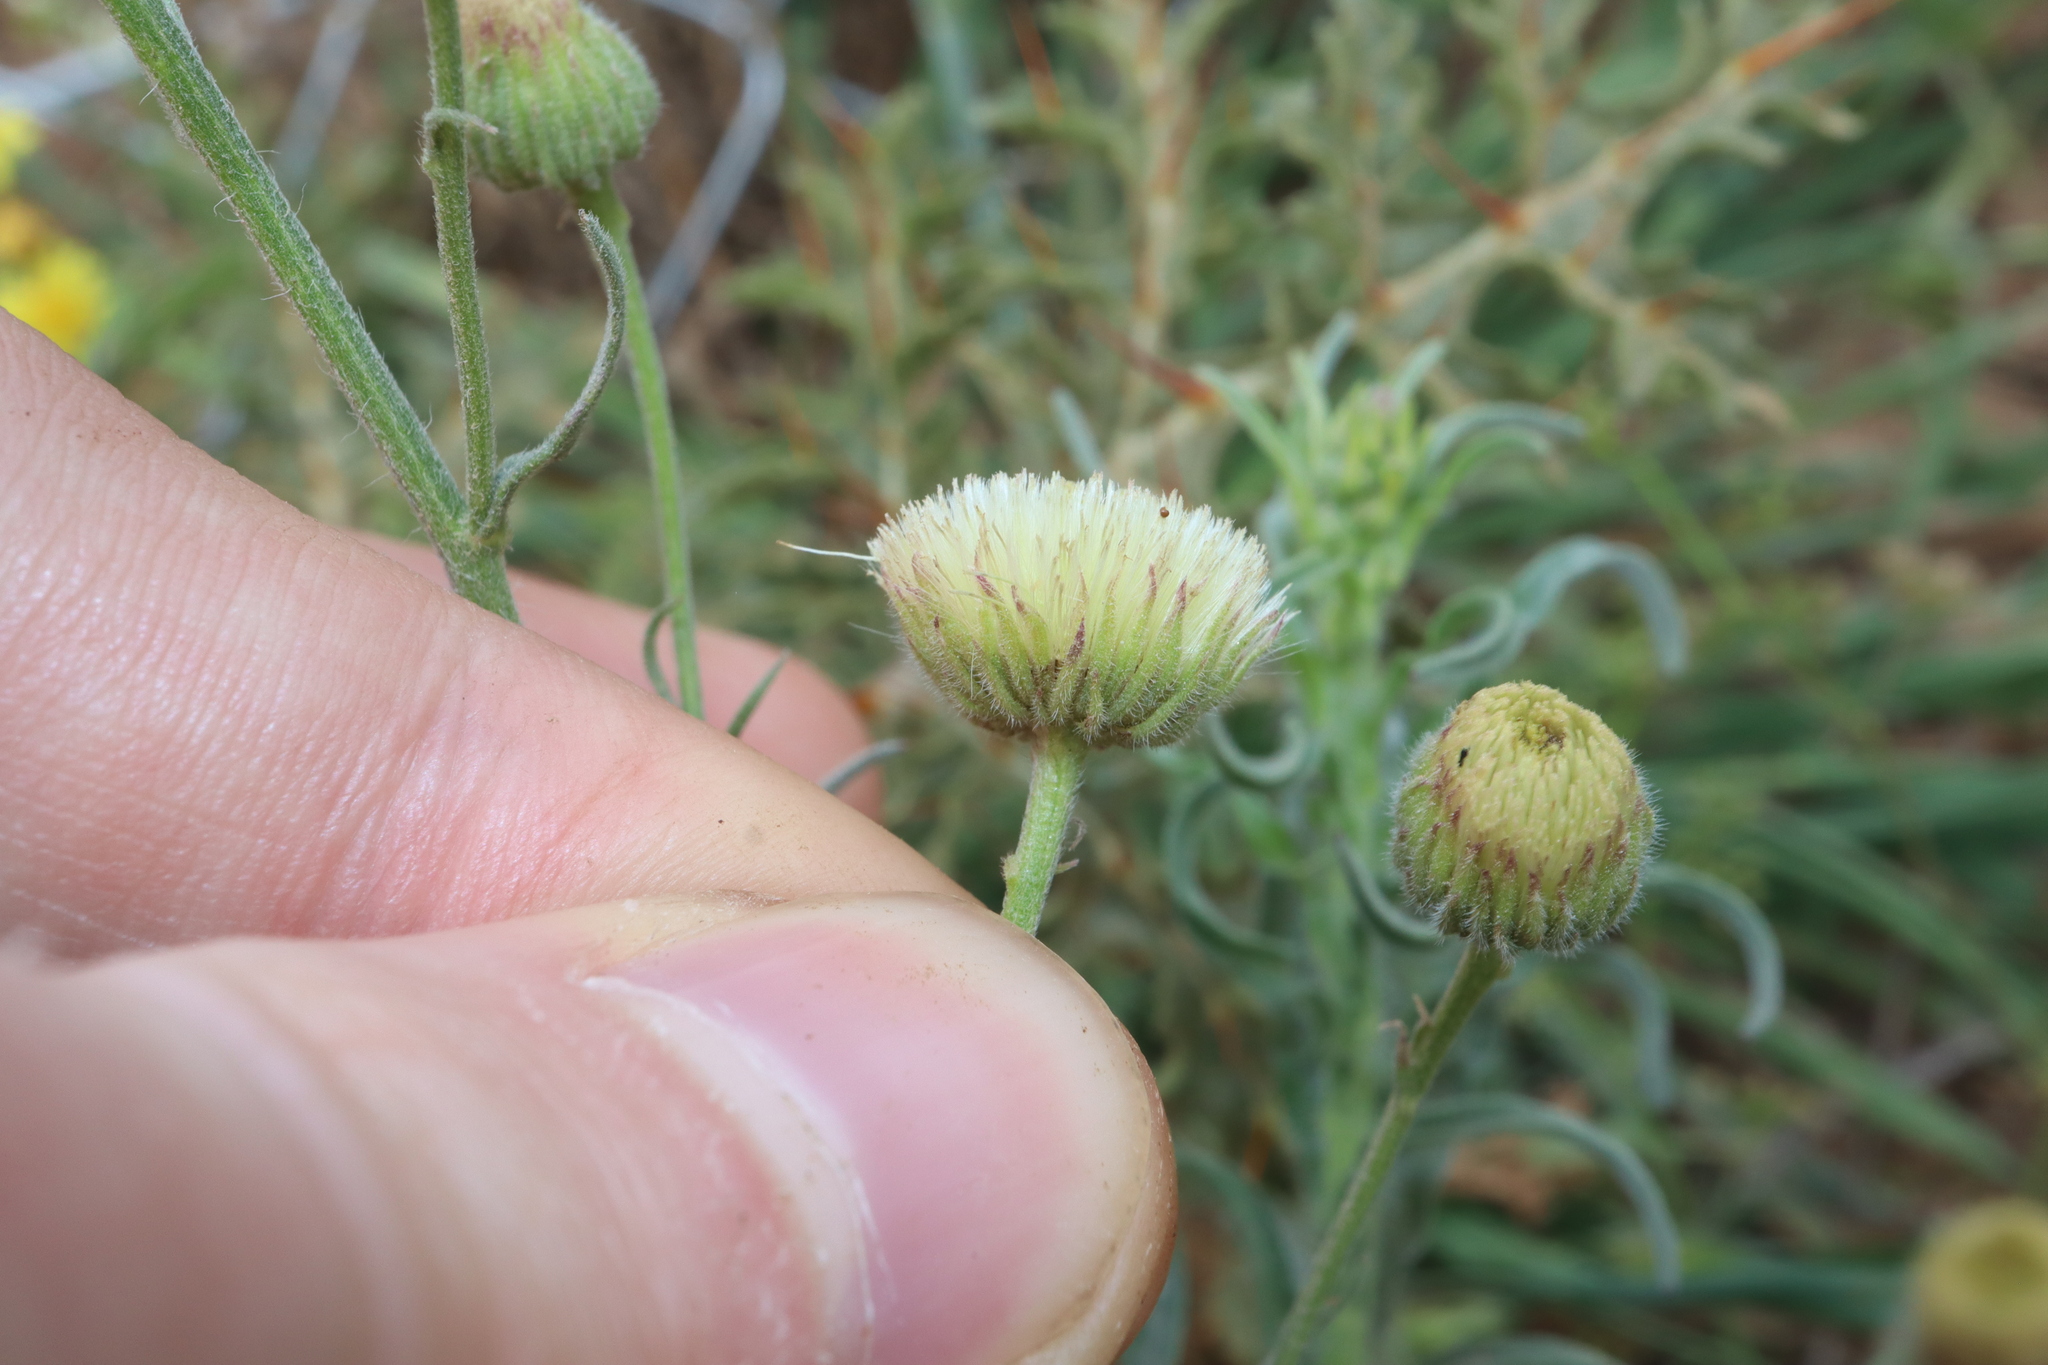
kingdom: Plantae
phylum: Tracheophyta
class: Magnoliopsida
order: Asterales
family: Asteraceae
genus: Erigeron
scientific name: Erigeron bonariensis
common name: Argentine fleabane
